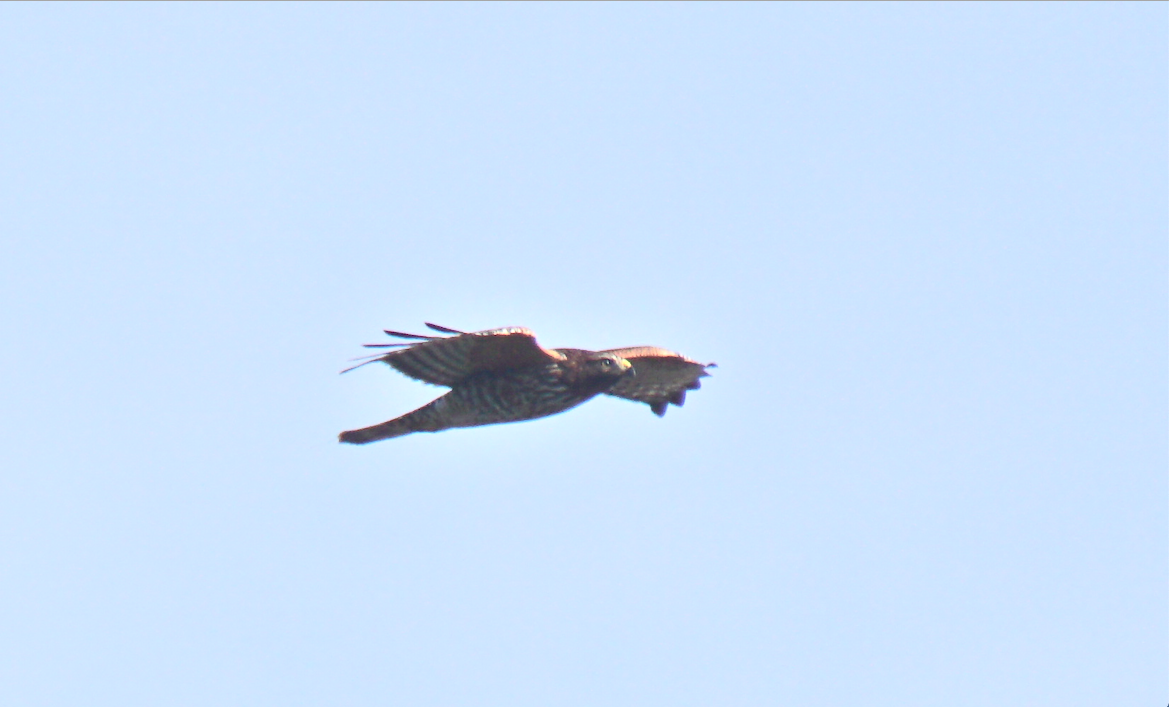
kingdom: Animalia
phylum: Chordata
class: Aves
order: Accipitriformes
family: Accipitridae
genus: Buteo
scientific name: Buteo lineatus
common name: Red-shouldered hawk
